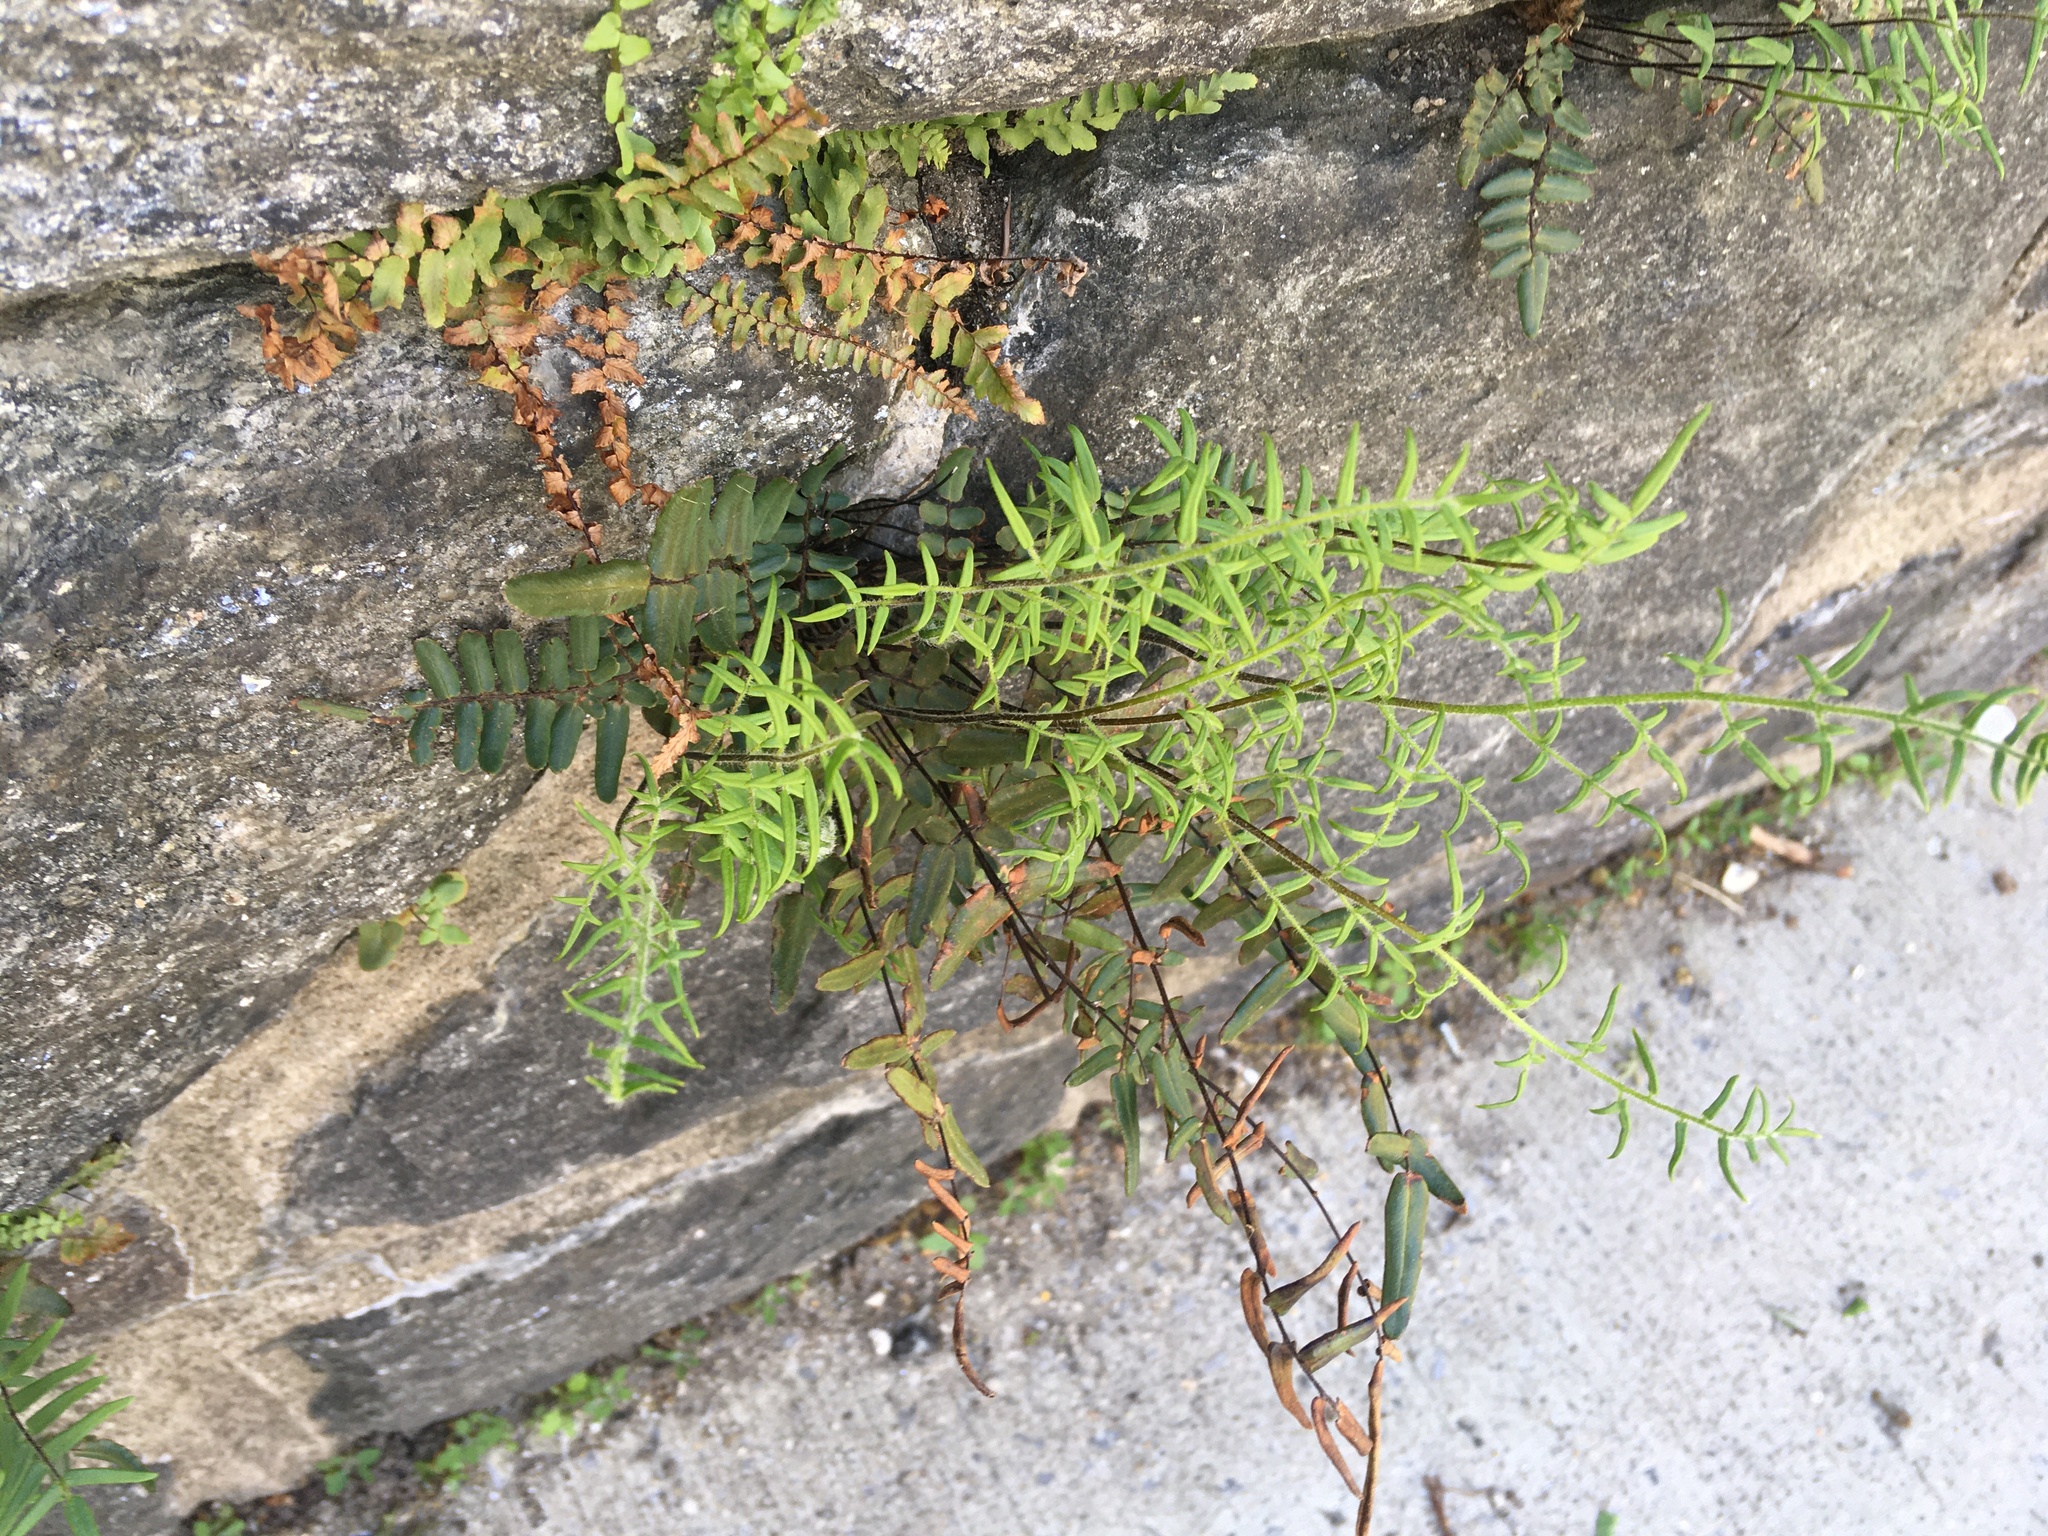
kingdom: Plantae
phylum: Tracheophyta
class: Polypodiopsida
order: Polypodiales
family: Pteridaceae
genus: Pellaea
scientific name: Pellaea atropurpurea
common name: Hairy cliffbrake
